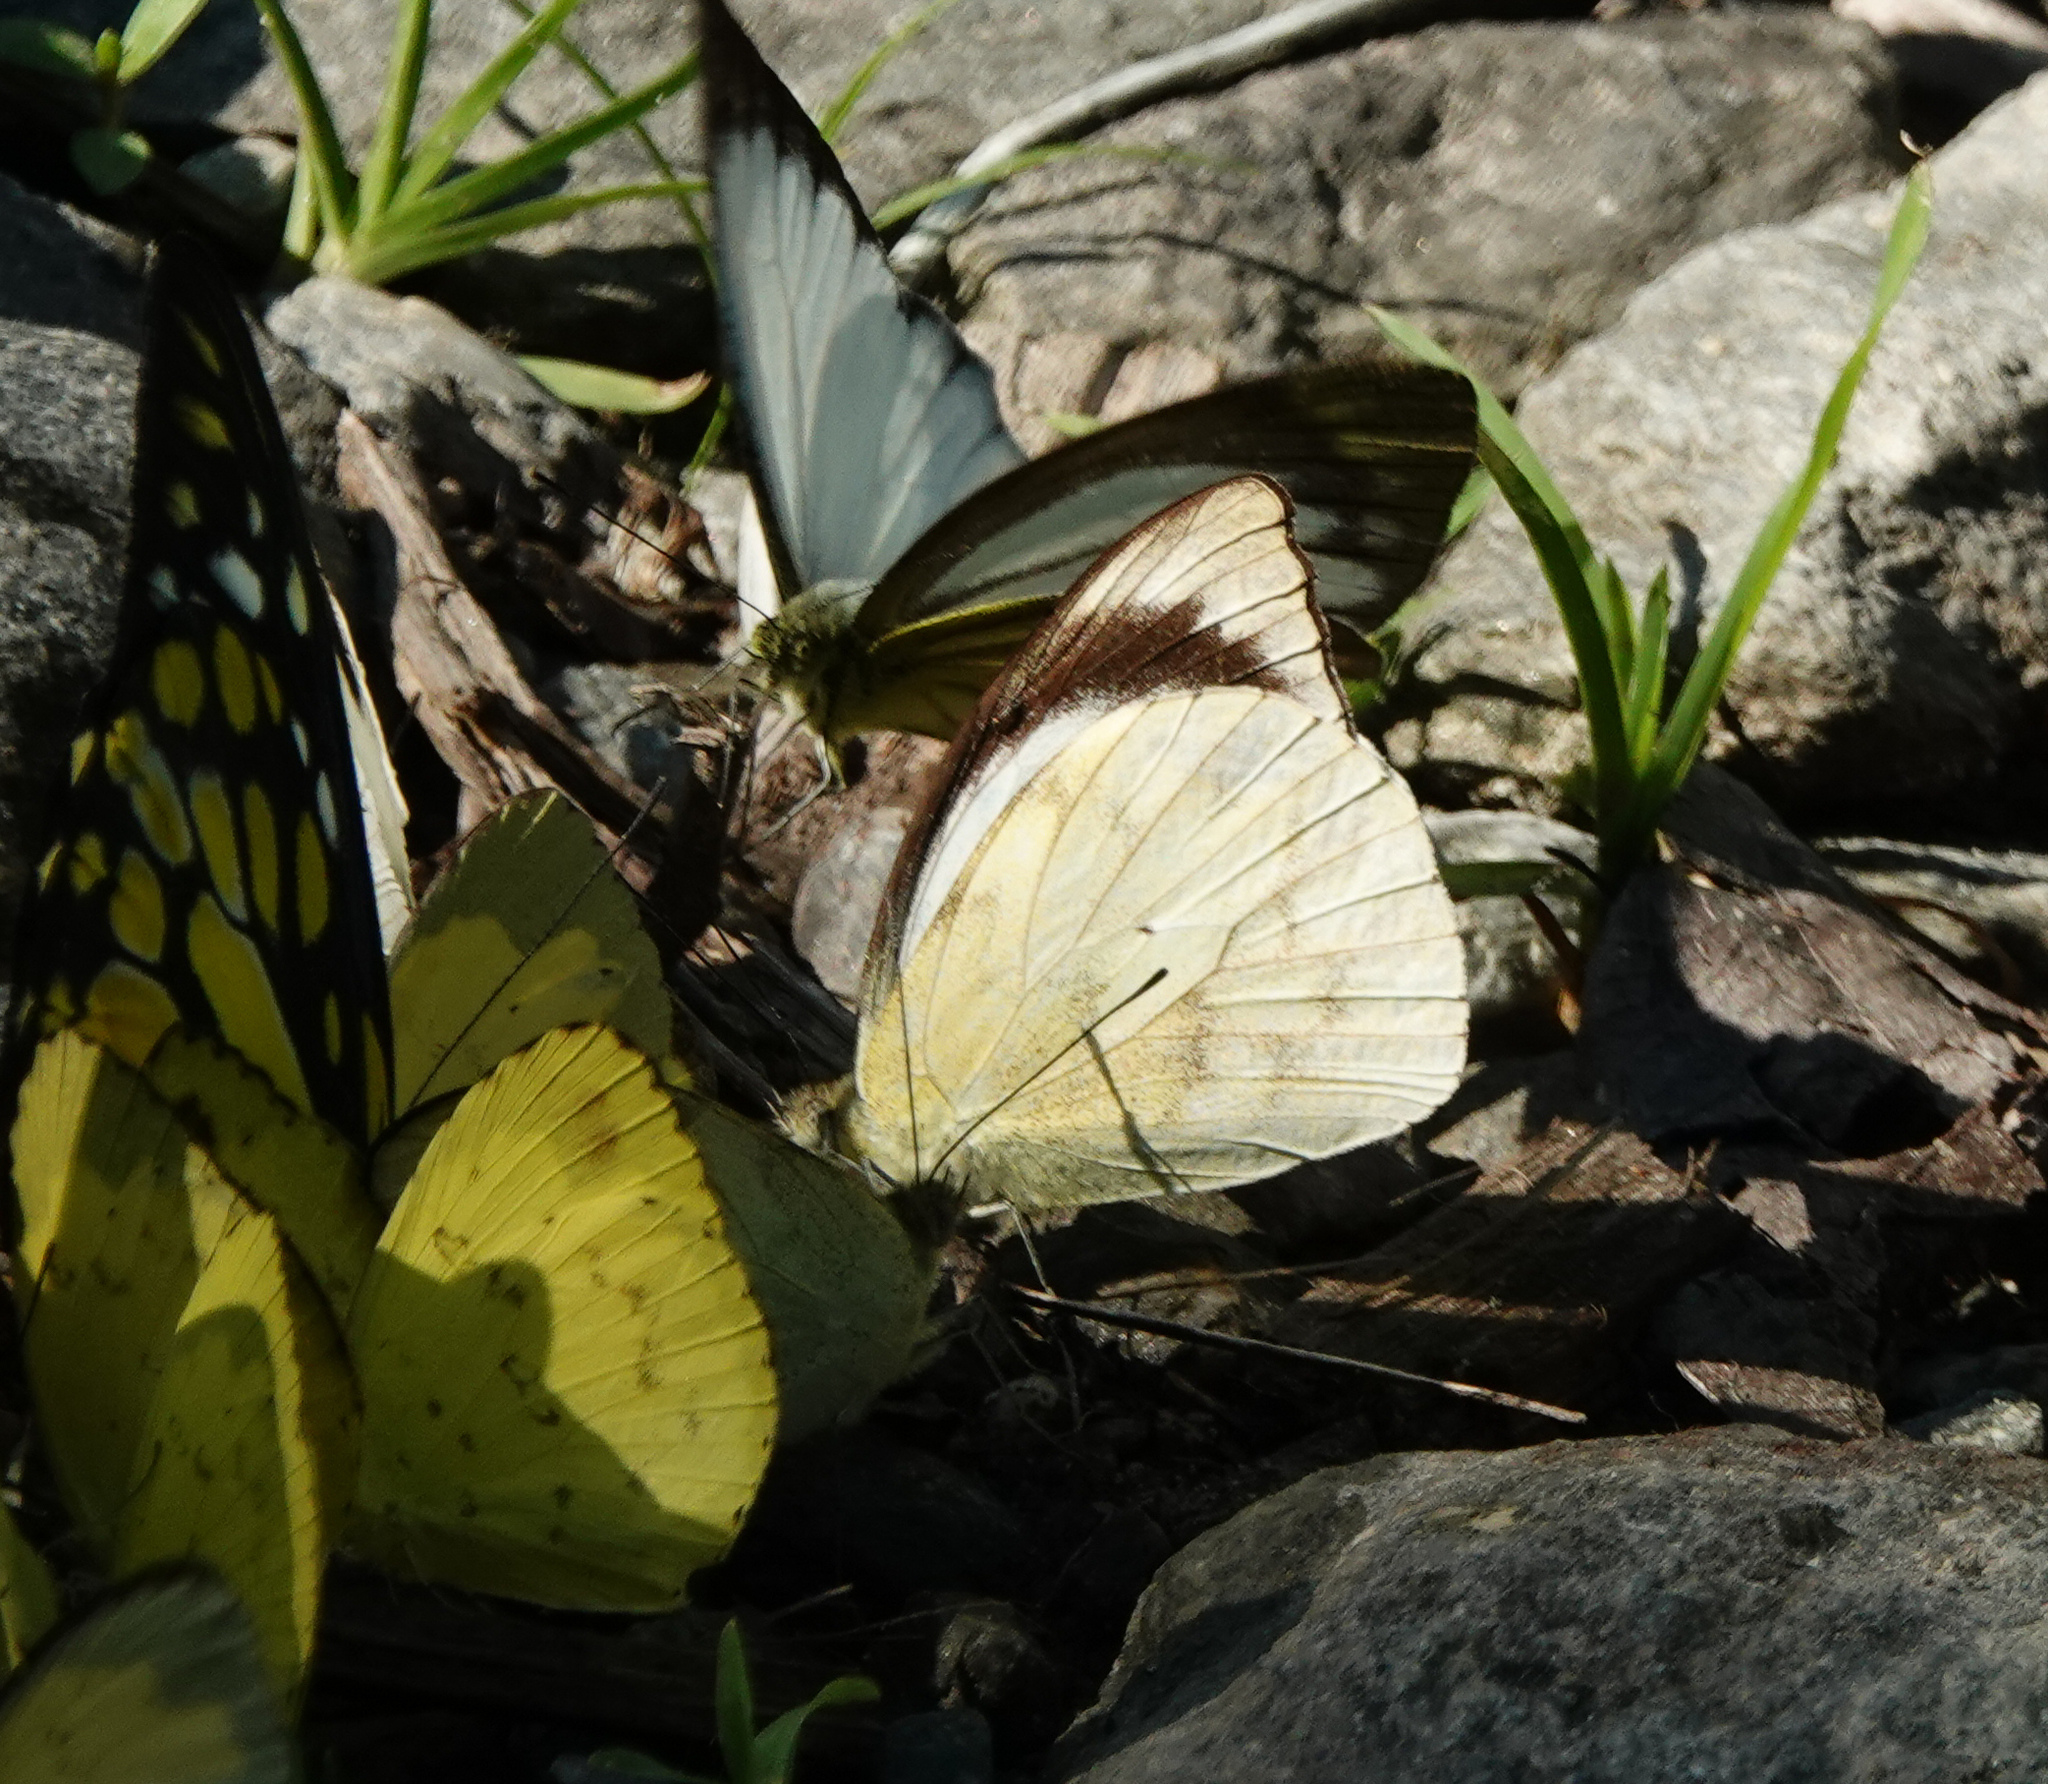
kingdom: Animalia
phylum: Arthropoda
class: Insecta
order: Lepidoptera
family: Pieridae
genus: Appias
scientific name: Appias indra
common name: Plain puffin
